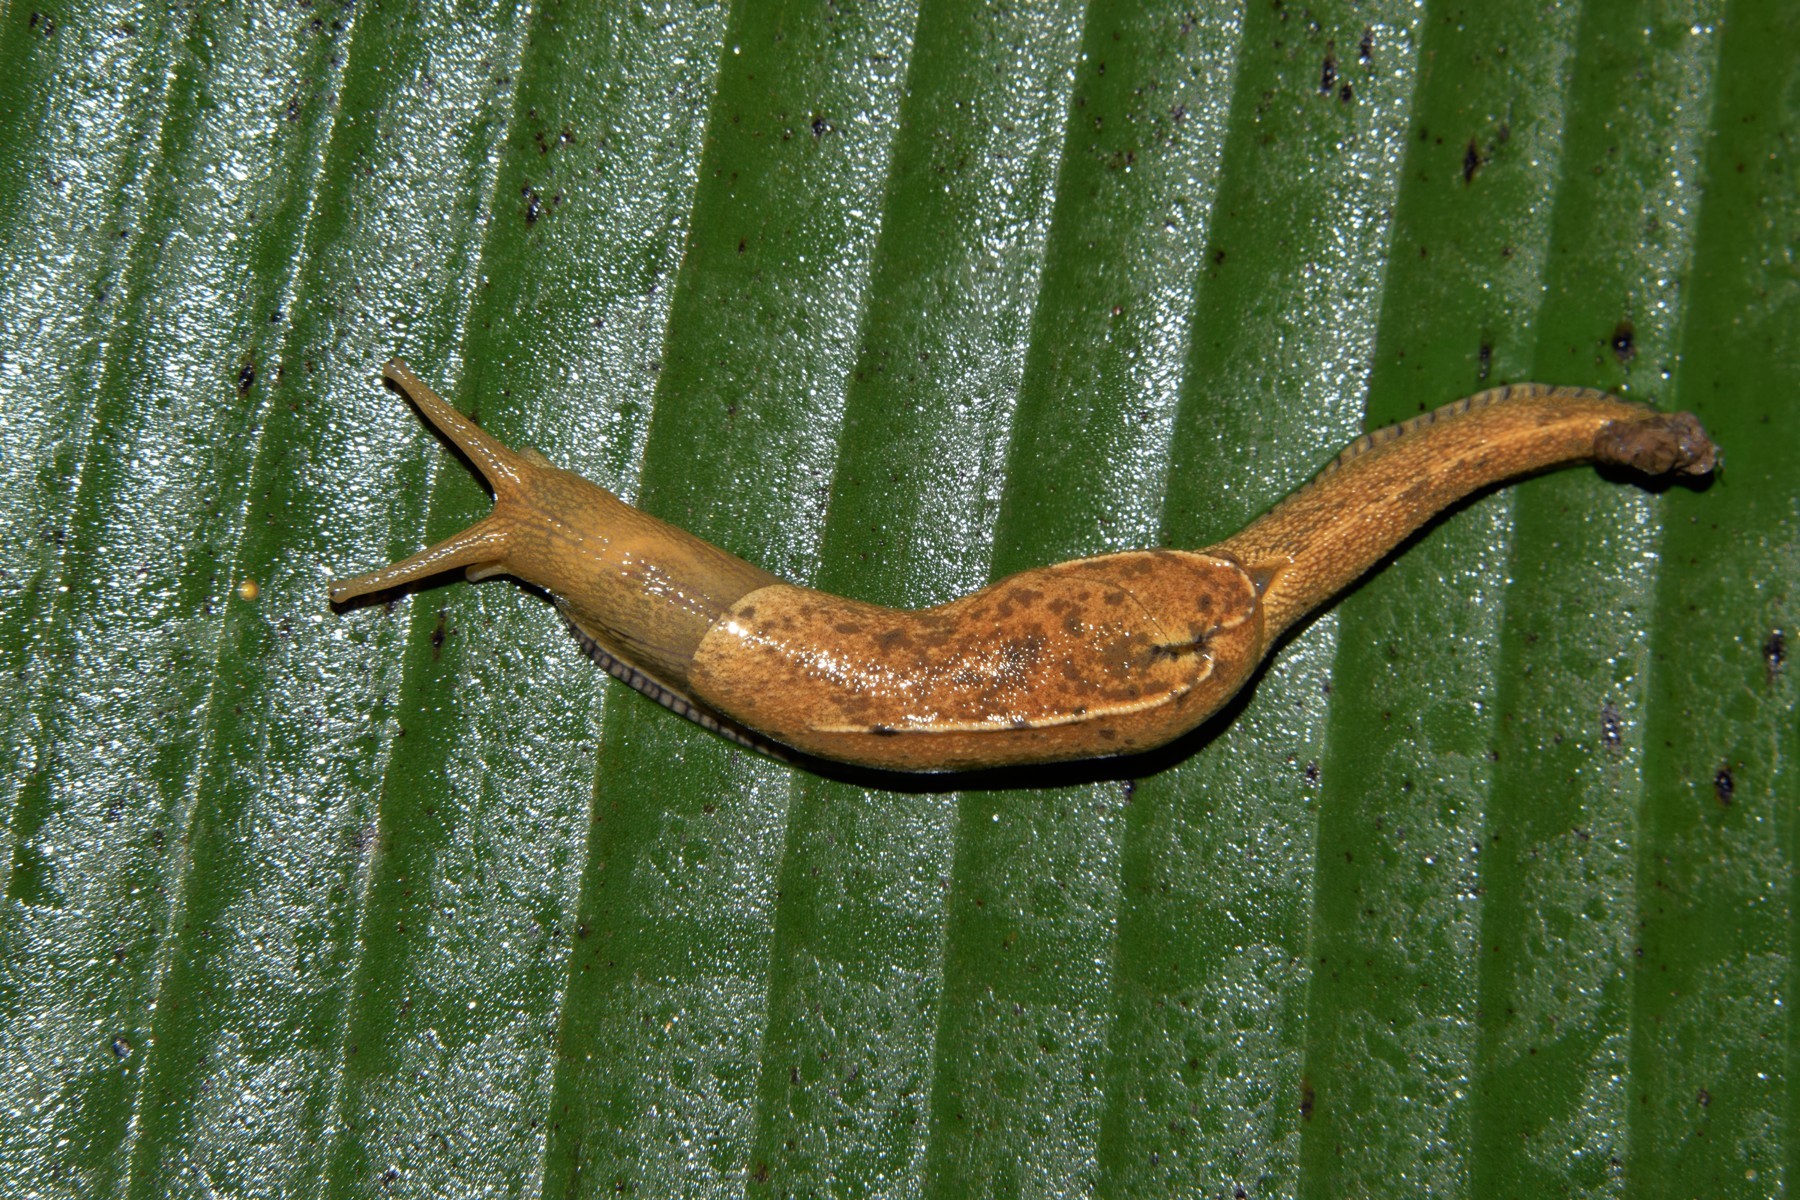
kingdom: Animalia
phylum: Mollusca
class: Gastropoda
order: Stylommatophora
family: Helicarionidae
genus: Girasia
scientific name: Girasia crocea
